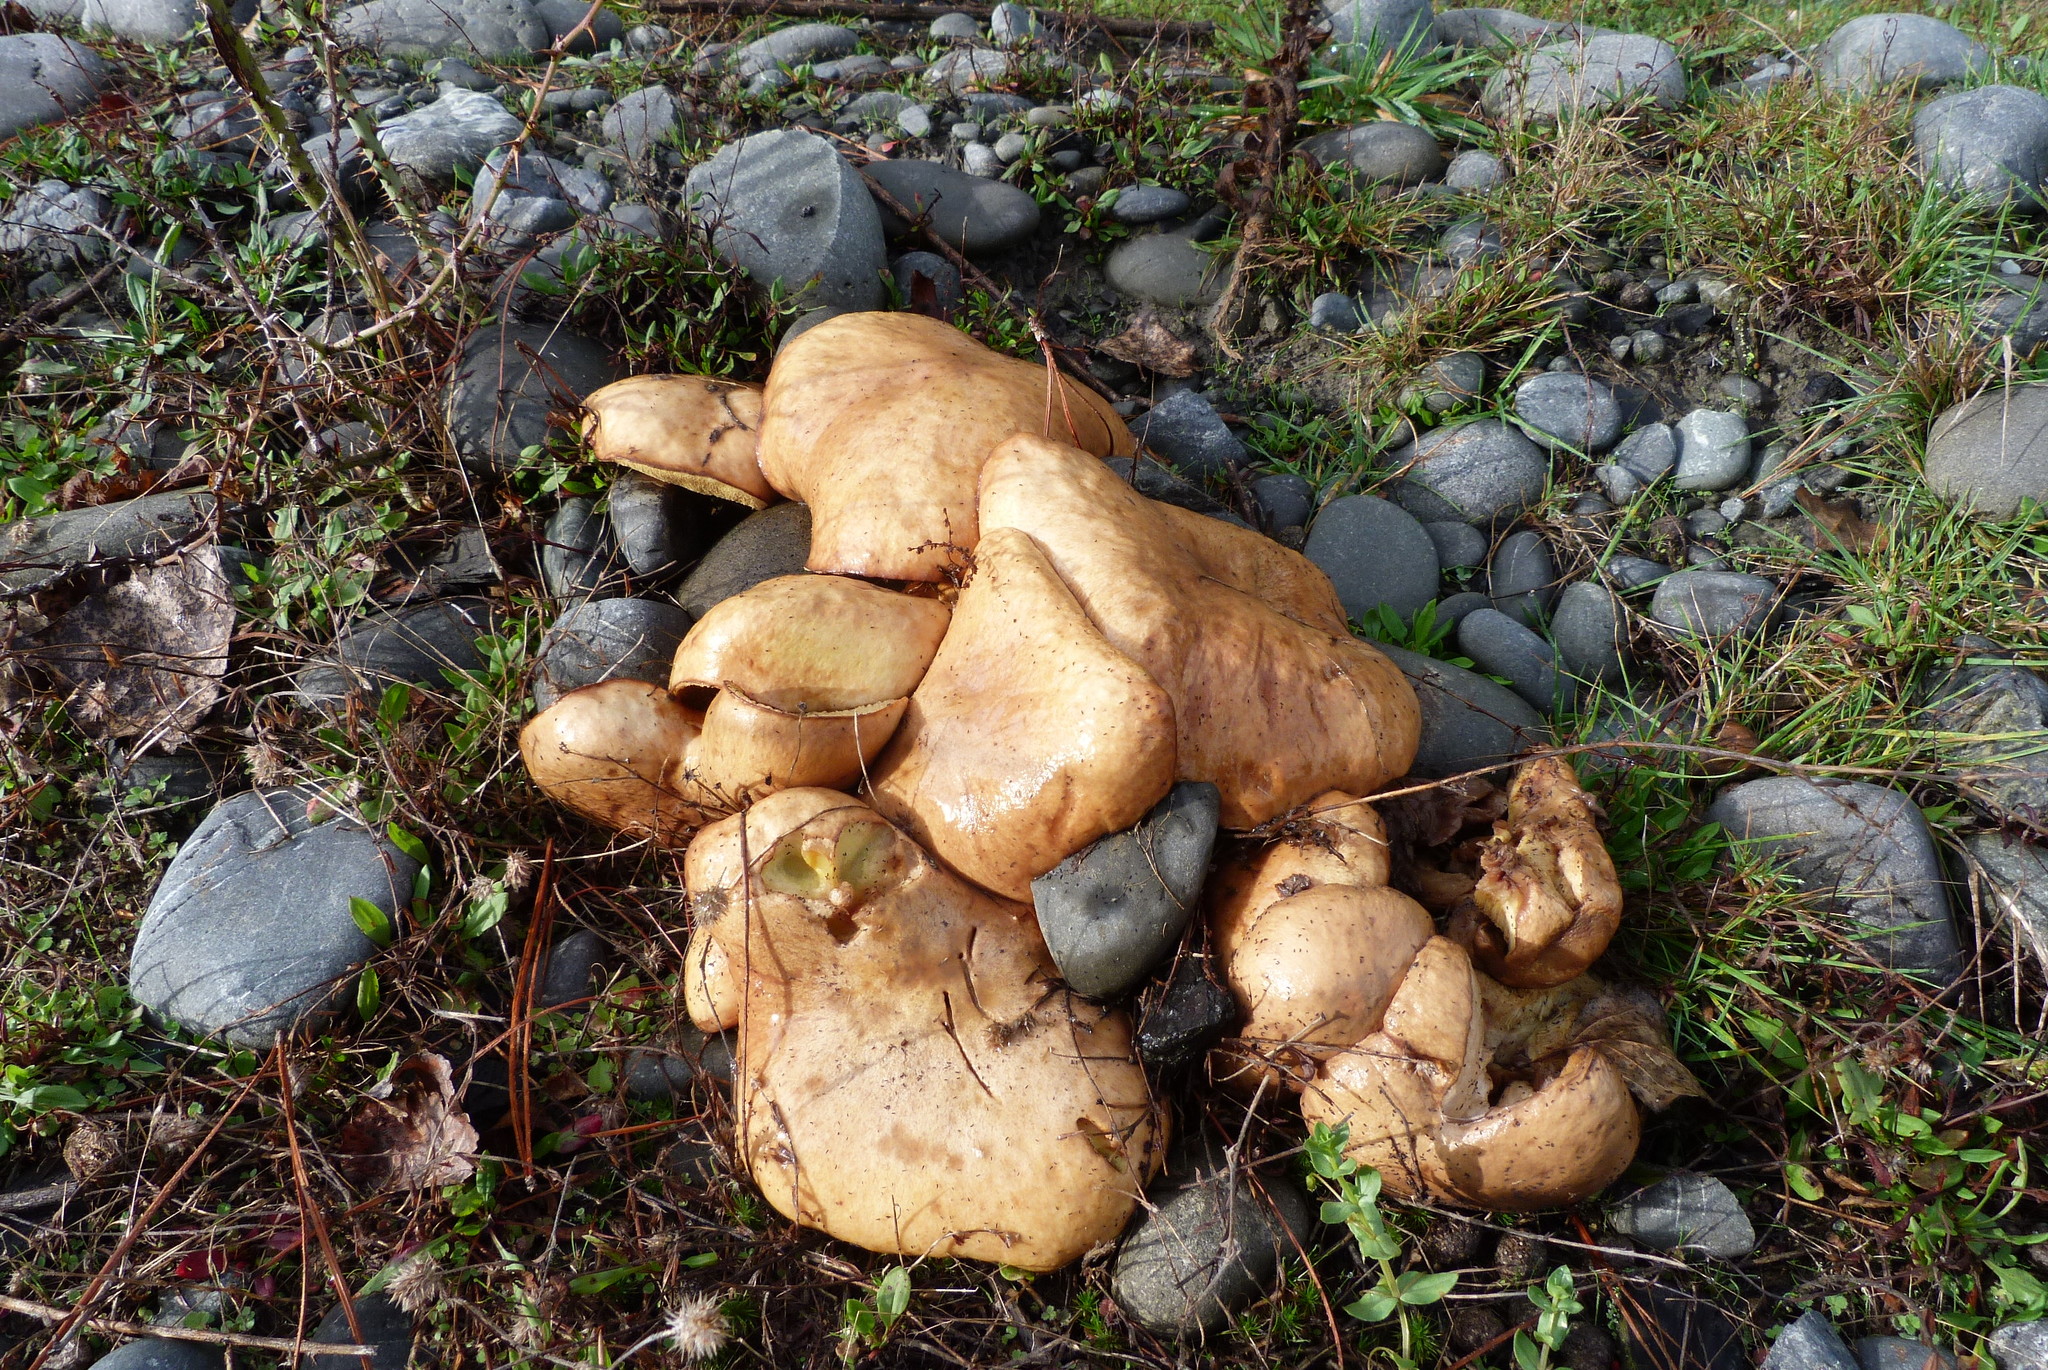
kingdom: Fungi
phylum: Basidiomycota
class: Agaricomycetes
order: Agaricales
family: Hymenogastraceae
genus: Gymnopilus
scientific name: Gymnopilus junonius
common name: Spectacular rustgill
